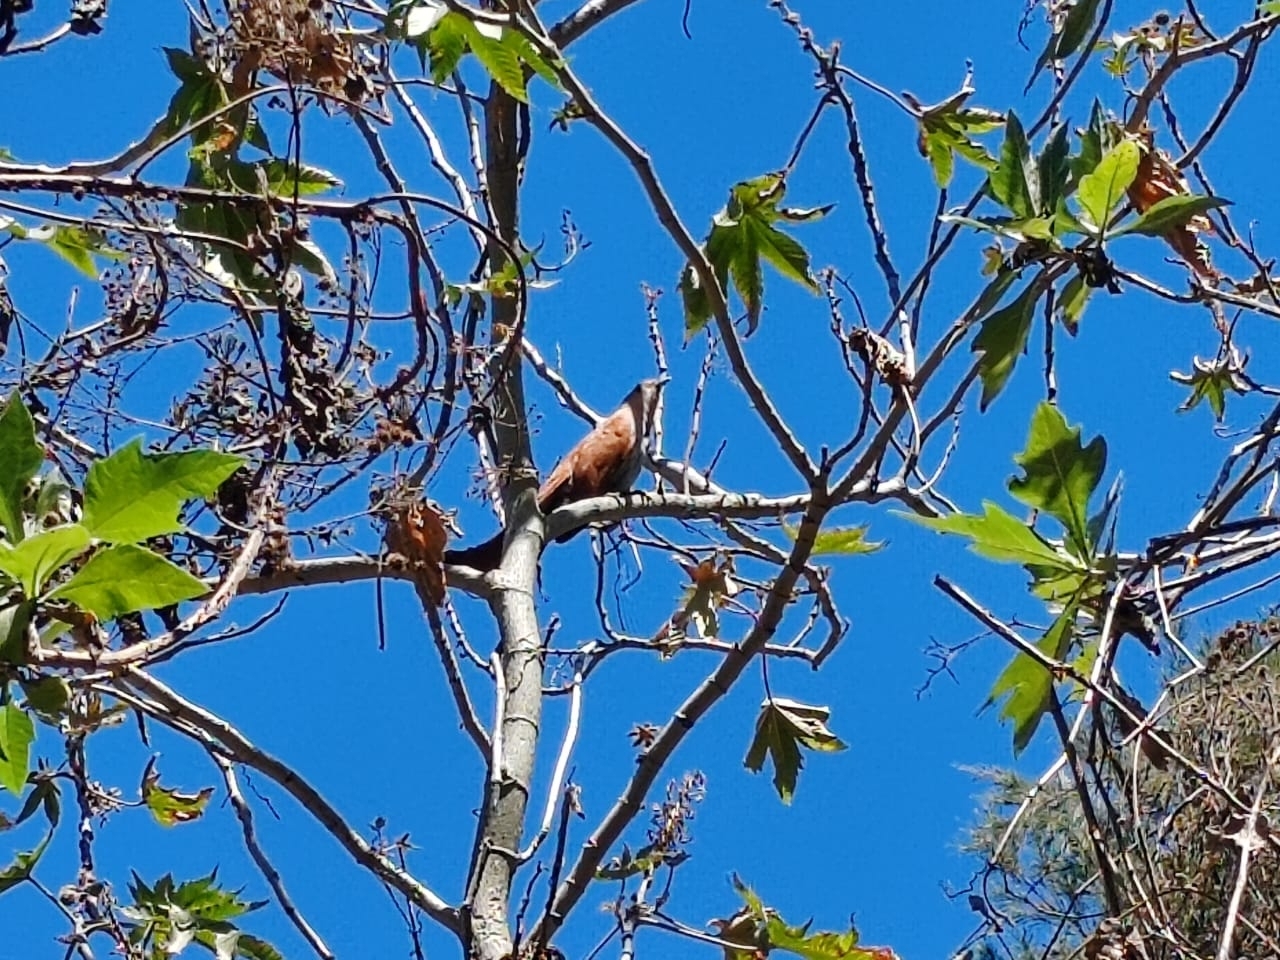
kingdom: Animalia
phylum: Chordata
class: Aves
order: Cuculiformes
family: Cuculidae
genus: Piaya
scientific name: Piaya cayana
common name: Squirrel cuckoo
